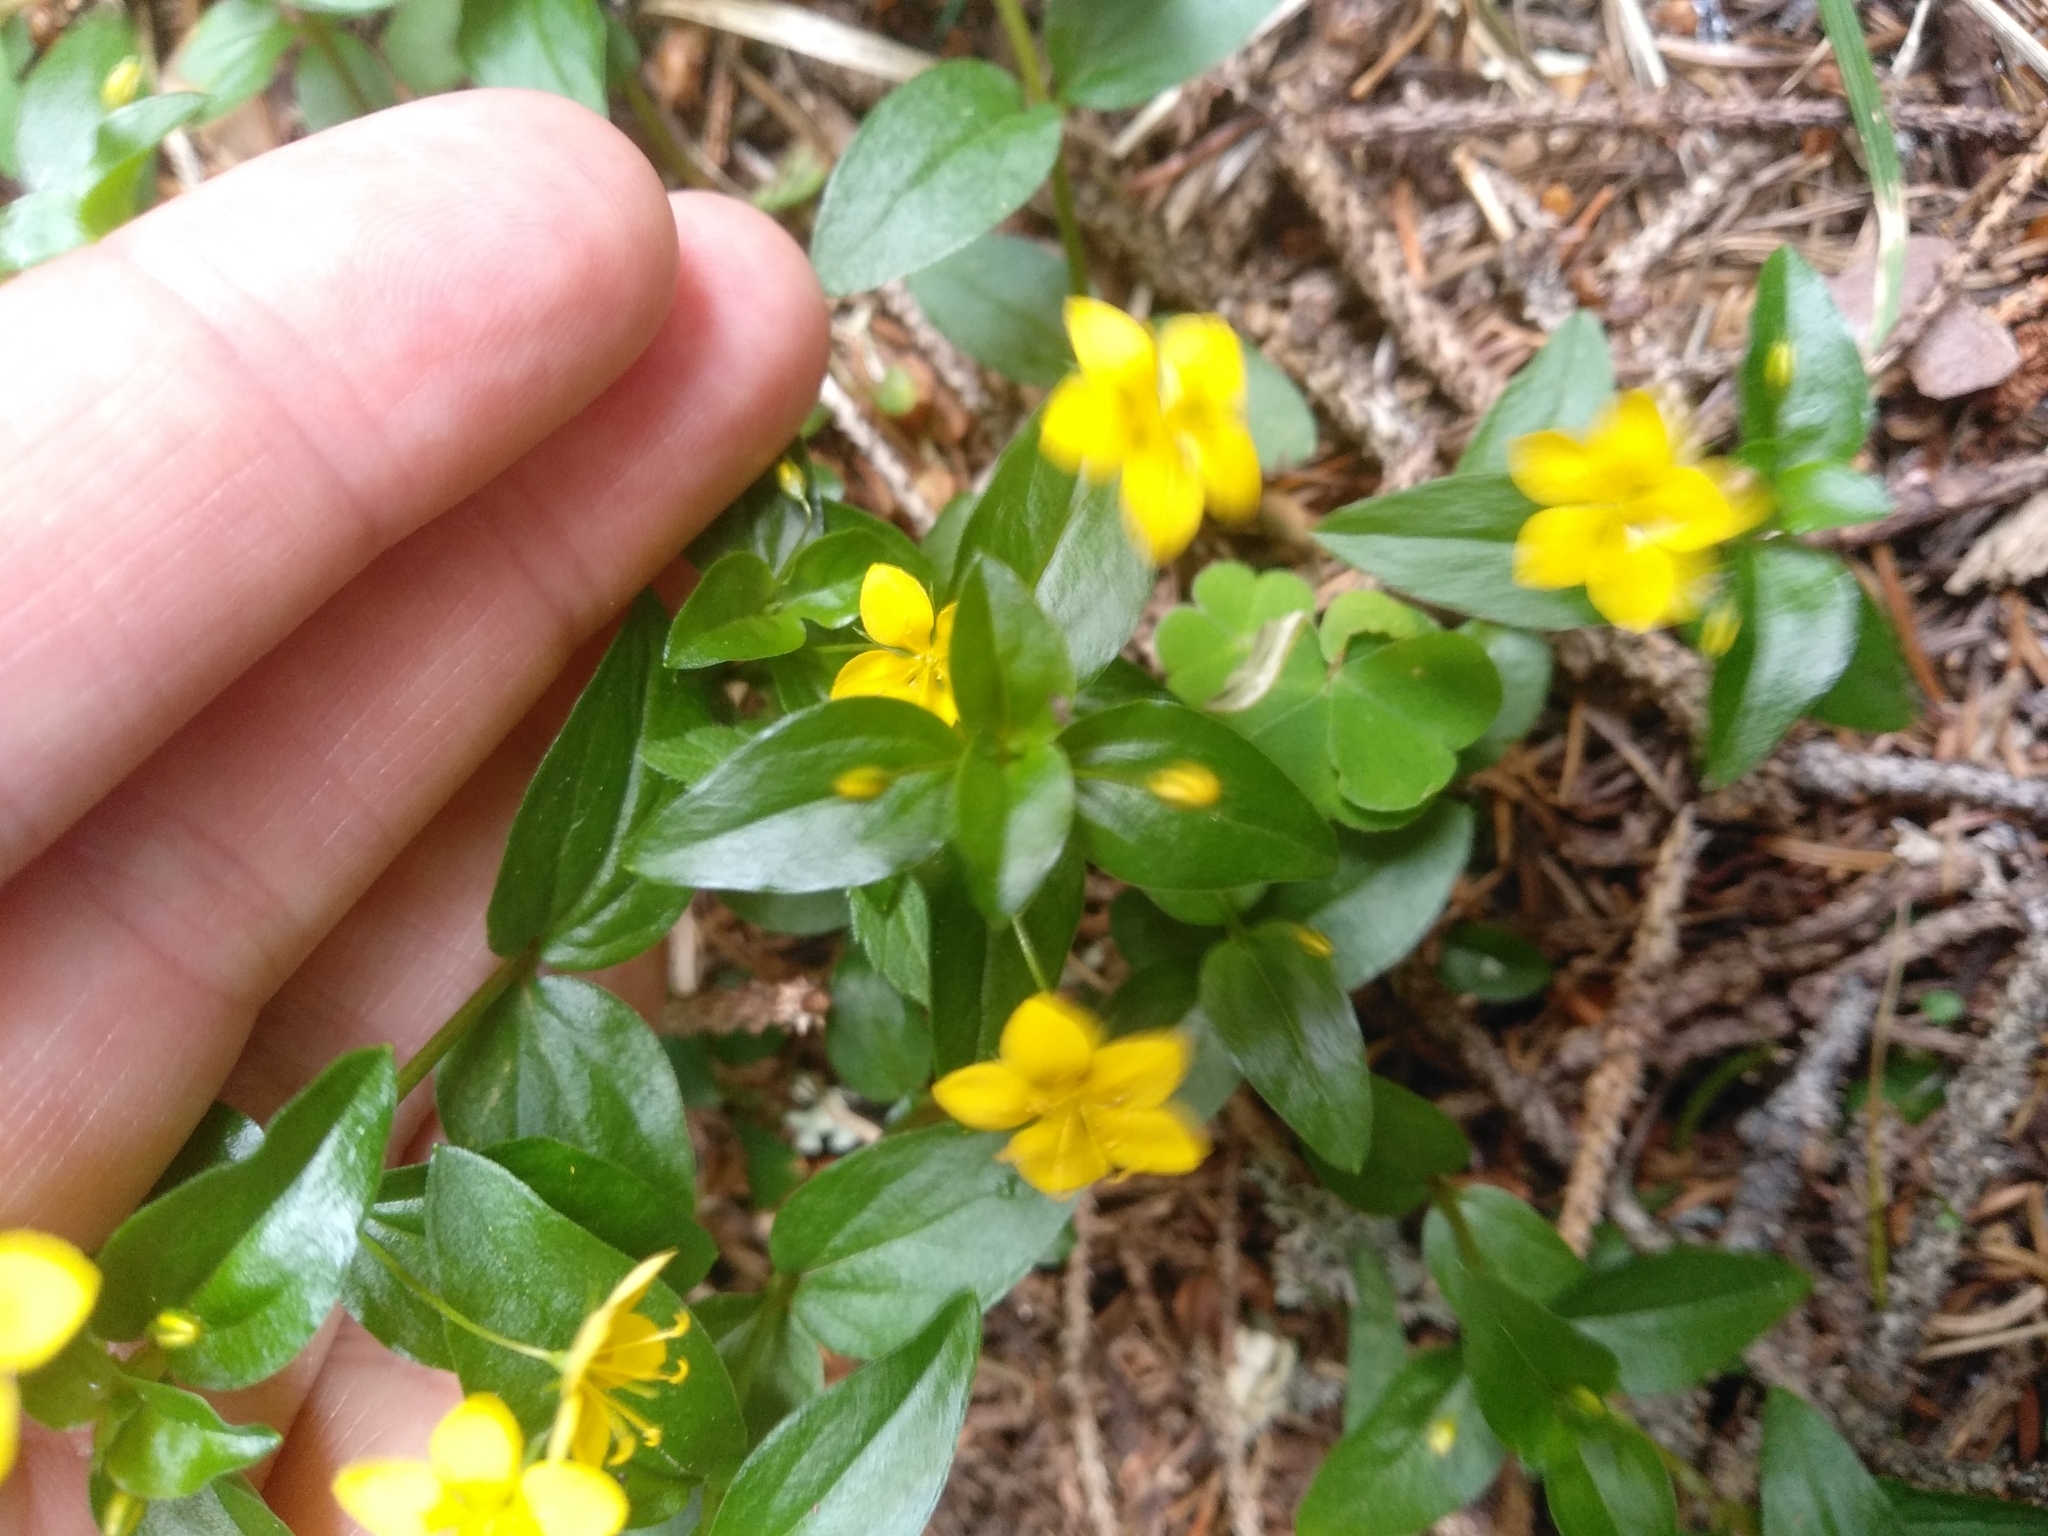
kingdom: Plantae
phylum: Tracheophyta
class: Magnoliopsida
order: Ericales
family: Primulaceae
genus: Lysimachia
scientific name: Lysimachia nemorum
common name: Yellow pimpernel
